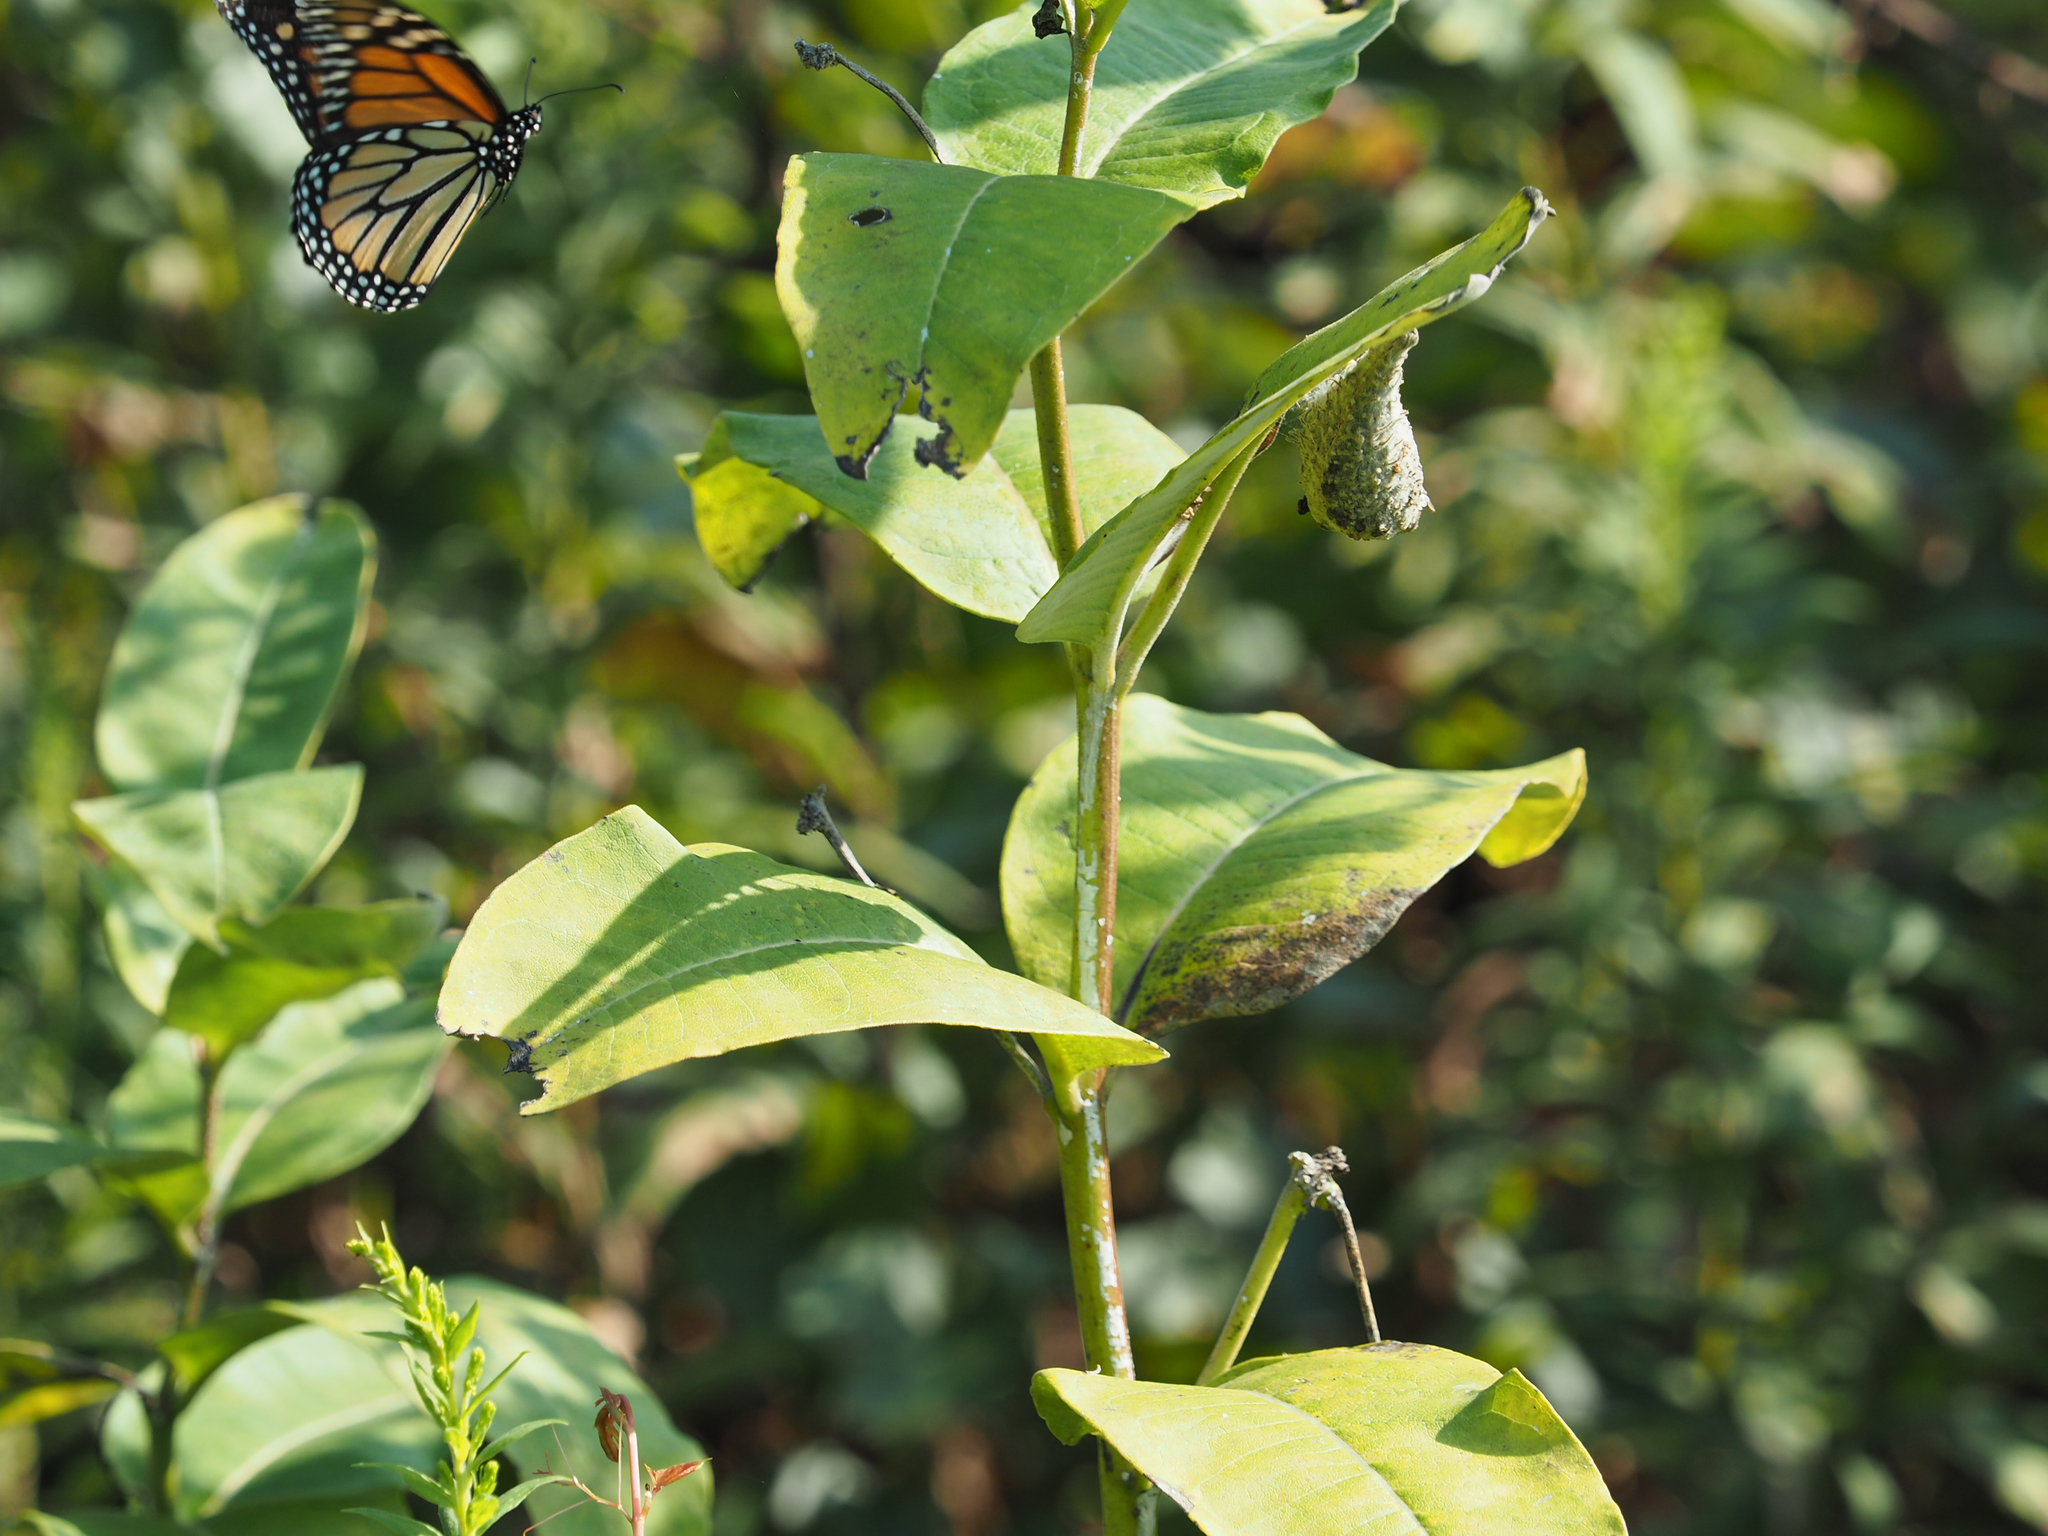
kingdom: Animalia
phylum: Arthropoda
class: Insecta
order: Lepidoptera
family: Nymphalidae
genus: Danaus
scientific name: Danaus plexippus
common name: Monarch
